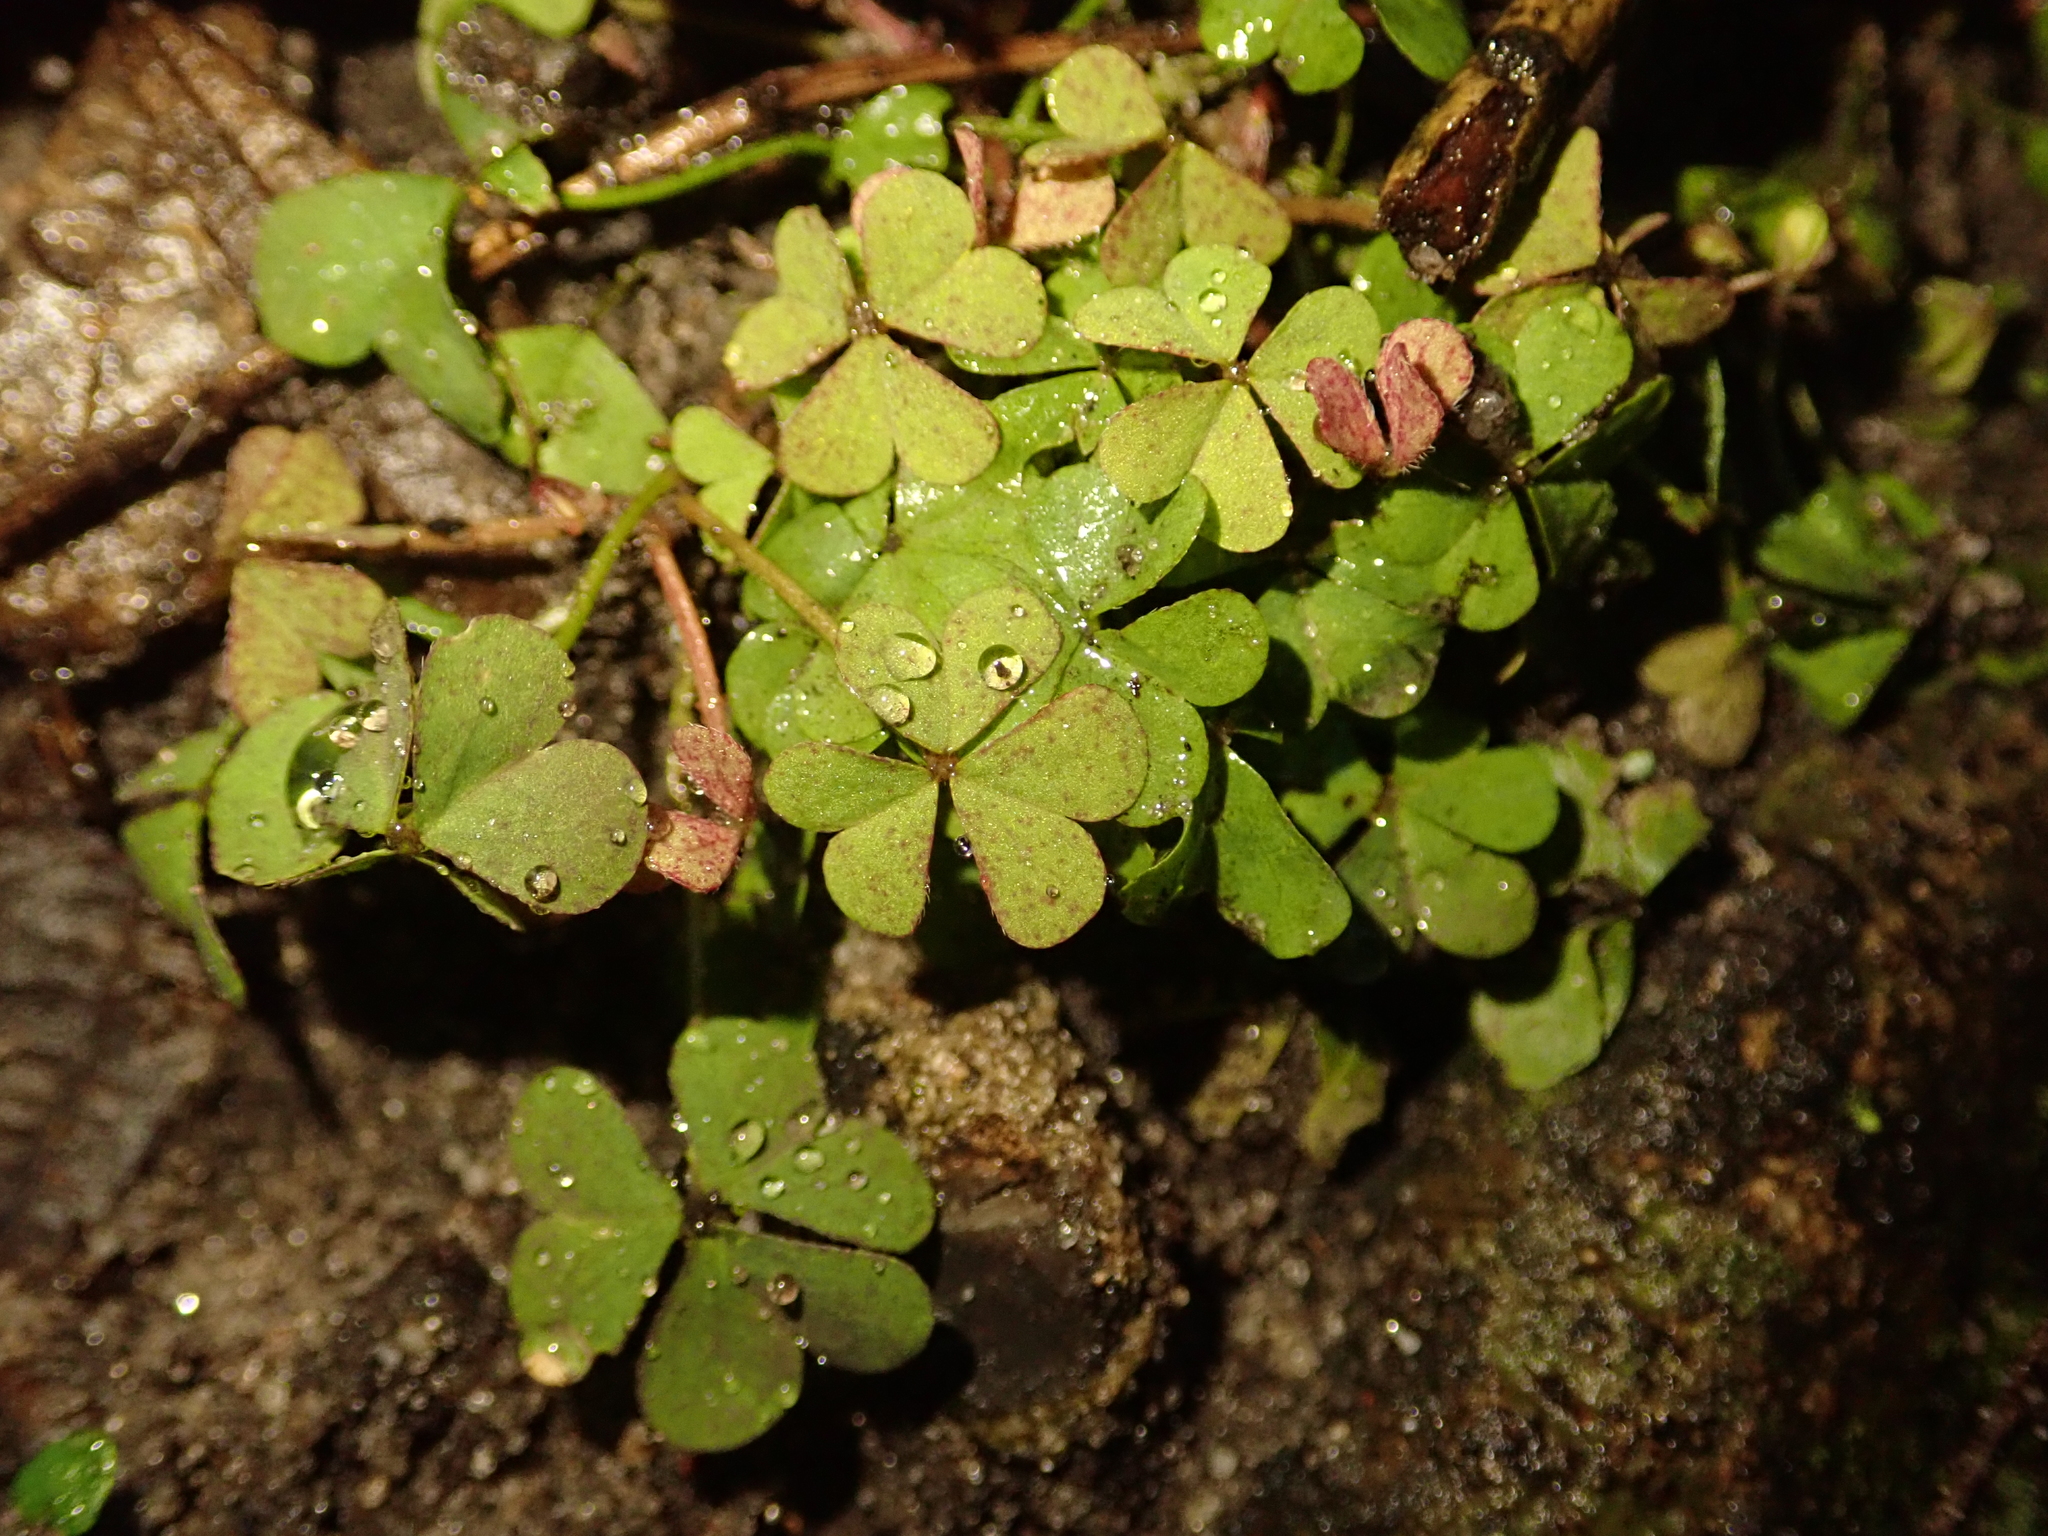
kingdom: Plantae
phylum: Tracheophyta
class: Magnoliopsida
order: Oxalidales
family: Oxalidaceae
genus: Oxalis
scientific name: Oxalis corniculata
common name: Procumbent yellow-sorrel
